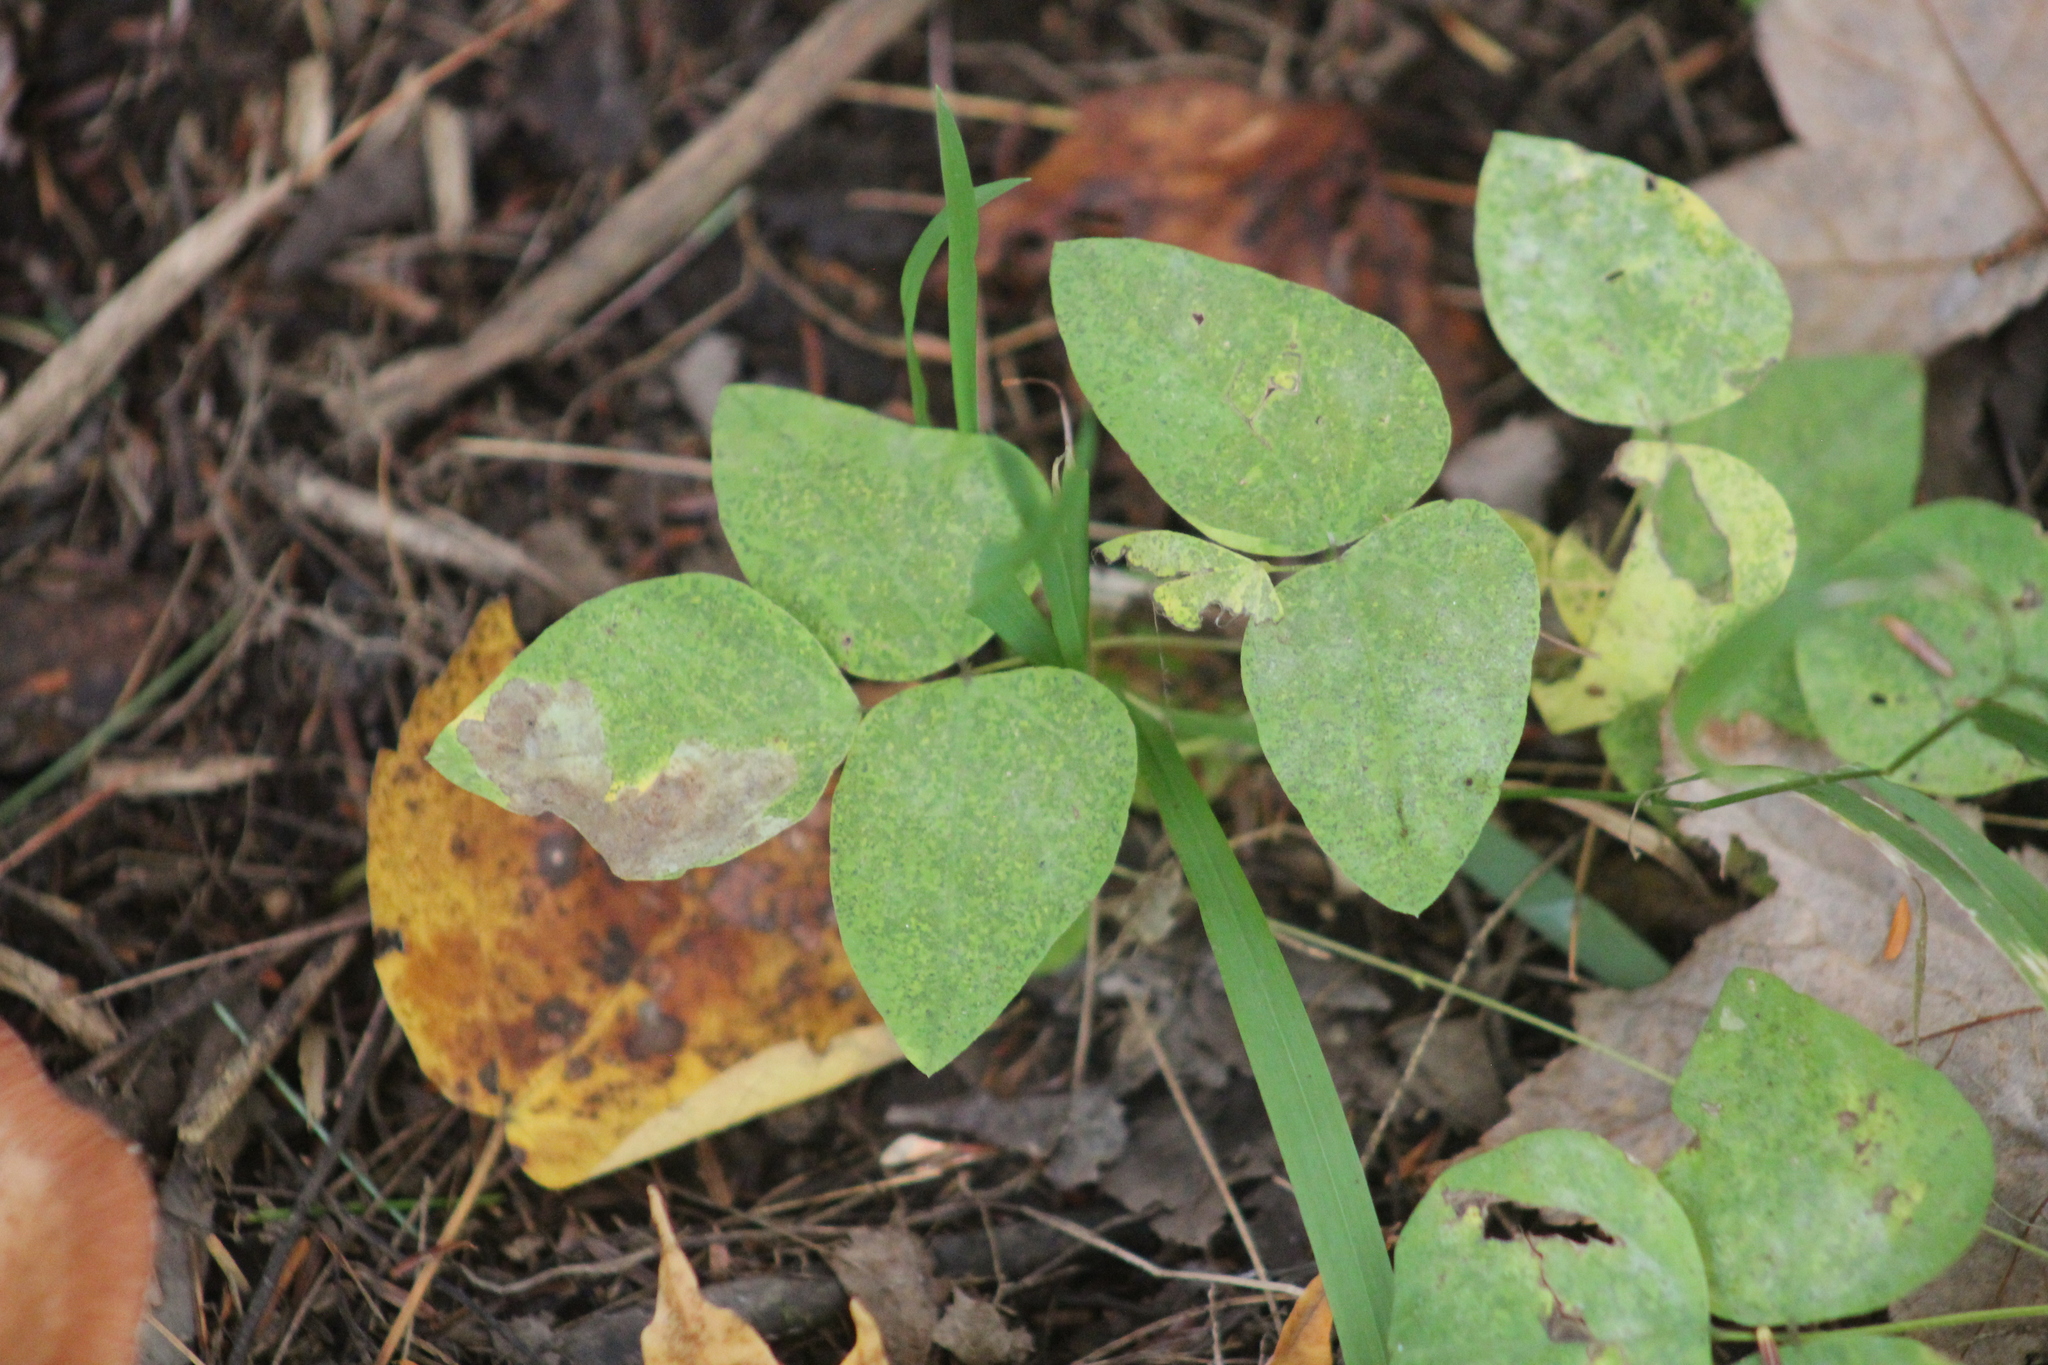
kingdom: Plantae
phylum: Tracheophyta
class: Magnoliopsida
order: Fabales
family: Fabaceae
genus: Amphicarpaea
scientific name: Amphicarpaea bracteata
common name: American hog peanut
